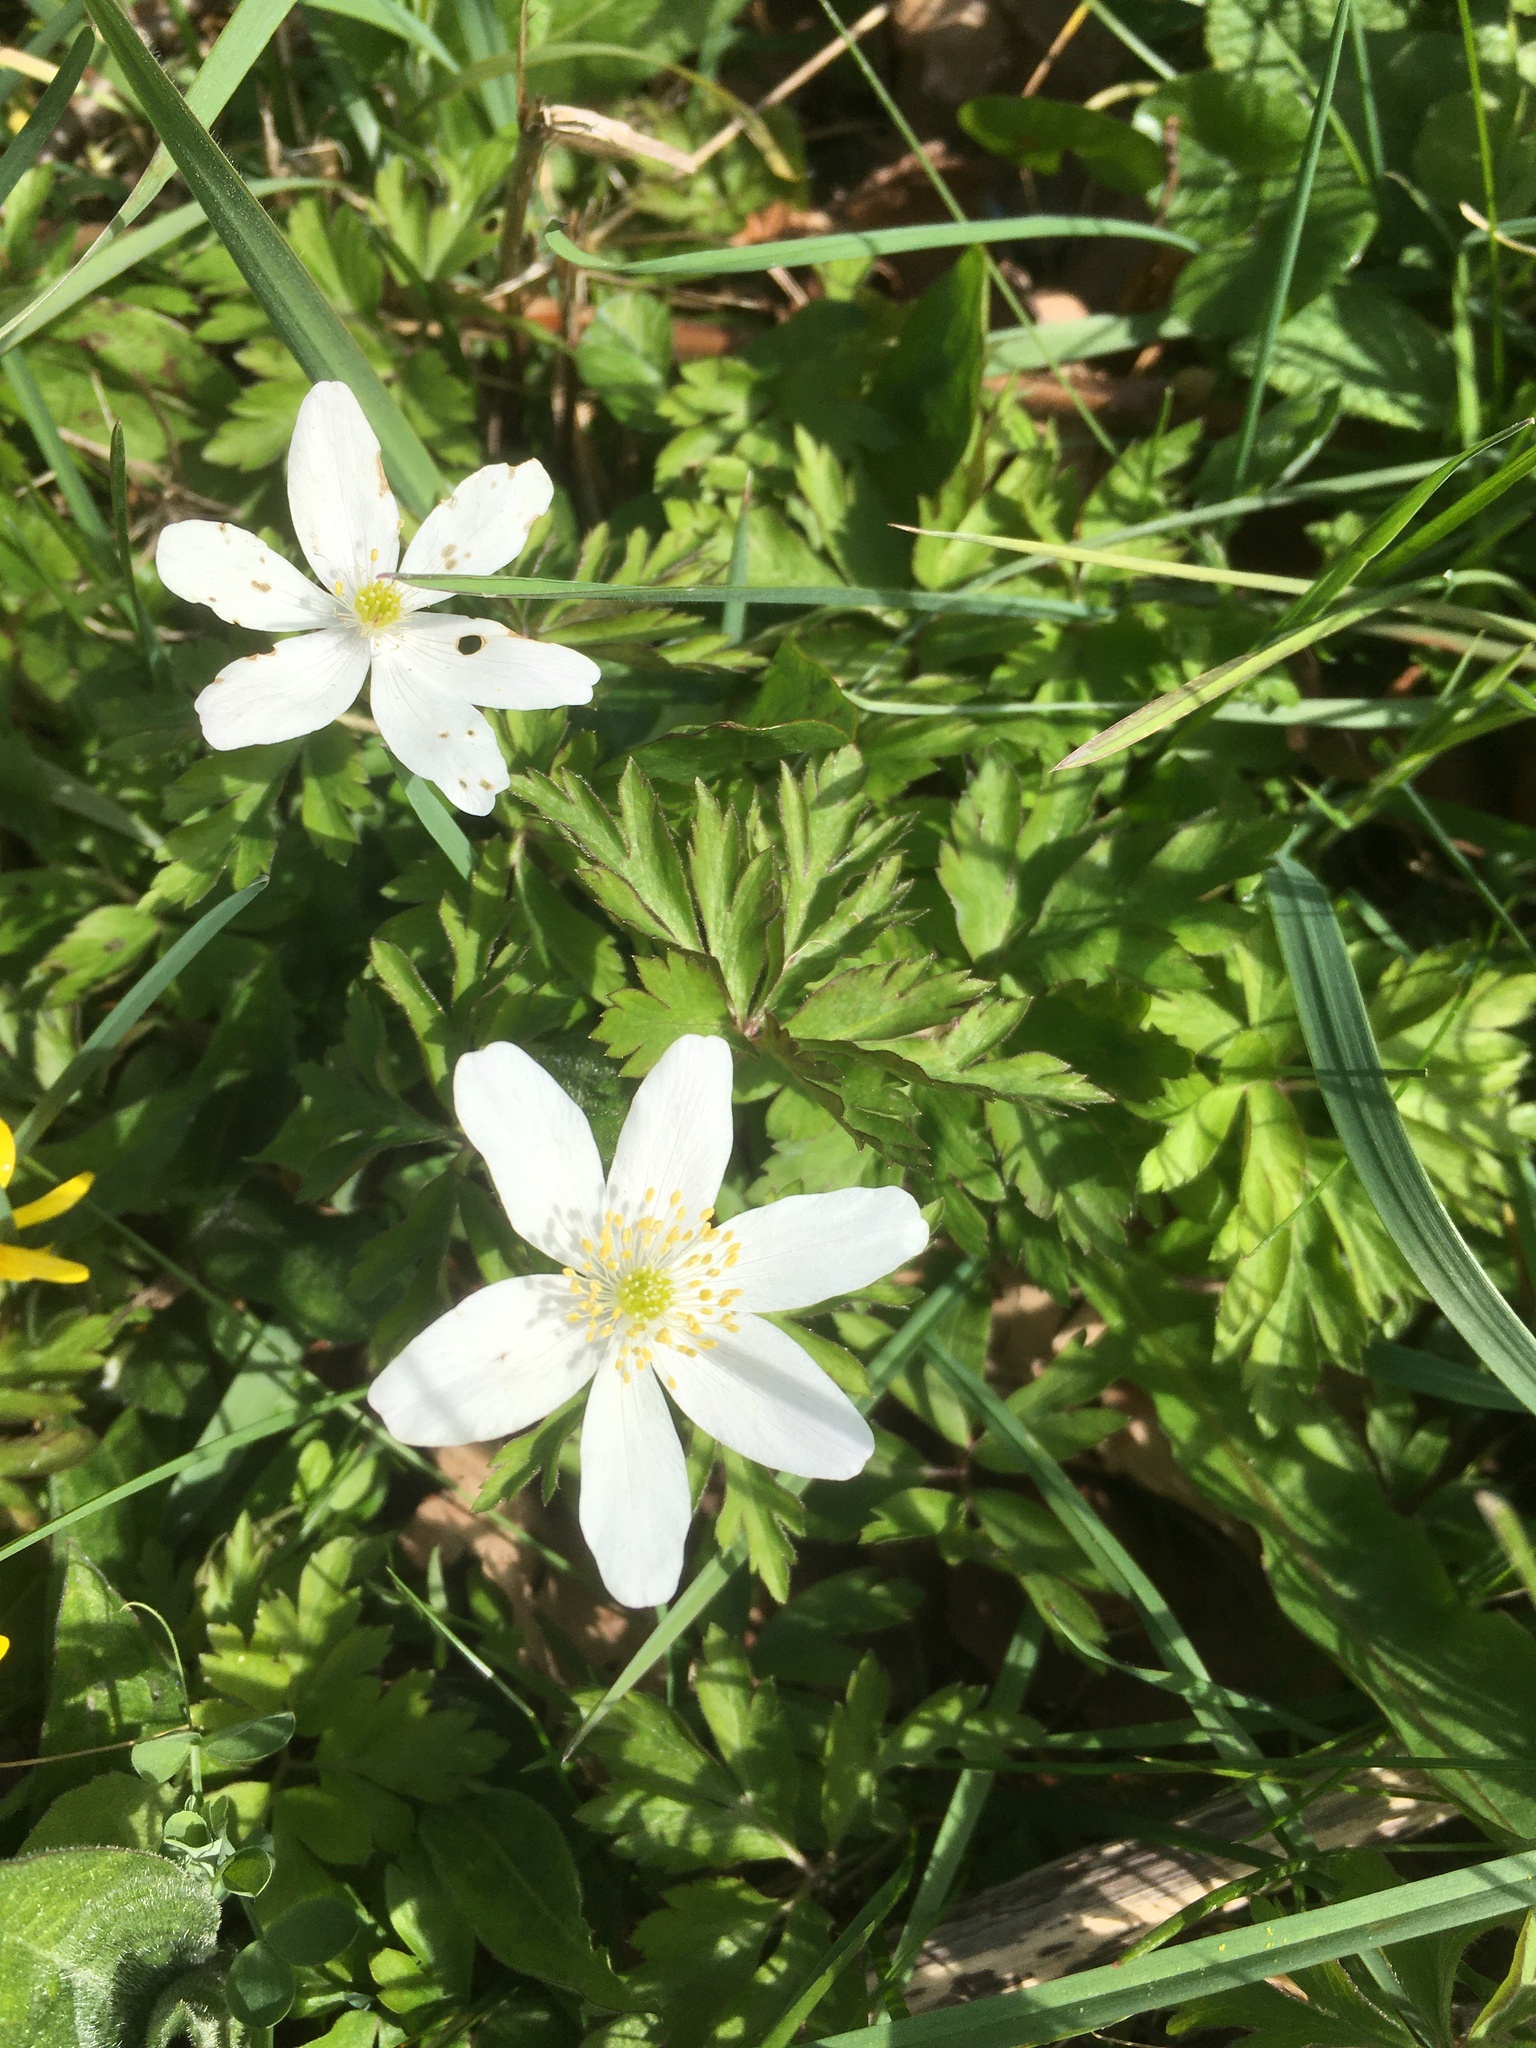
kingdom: Plantae
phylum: Tracheophyta
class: Magnoliopsida
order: Ranunculales
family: Ranunculaceae
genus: Anemone
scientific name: Anemone nemorosa
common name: Wood anemone
